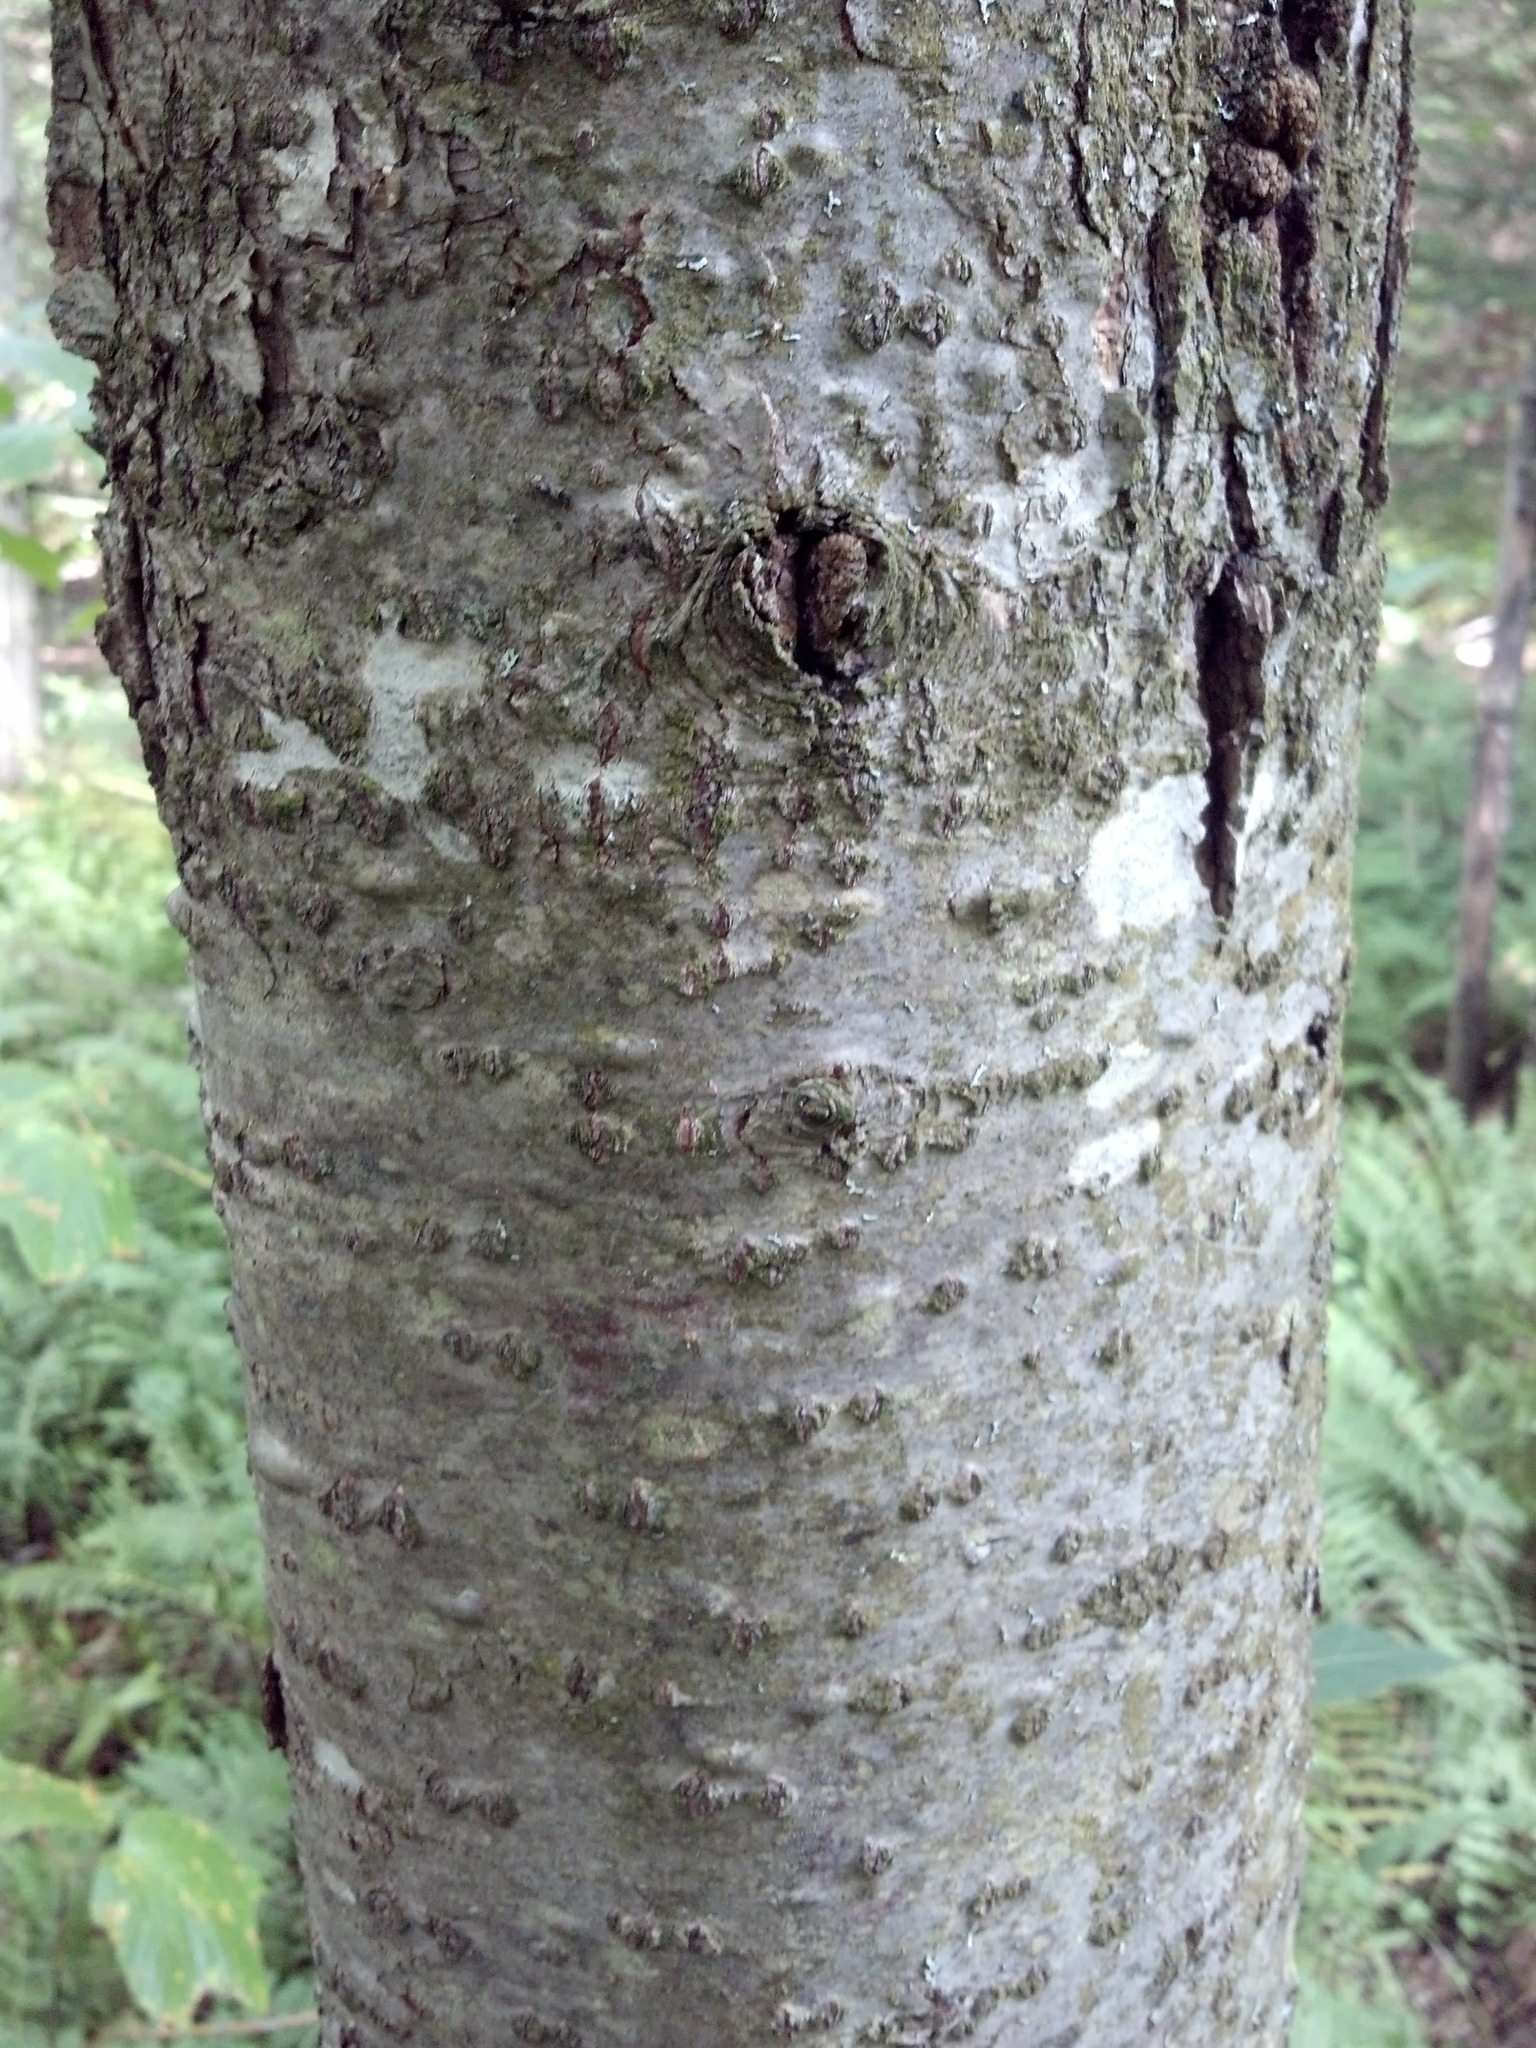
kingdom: Plantae
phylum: Tracheophyta
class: Pinopsida
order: Pinales
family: Pinaceae
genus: Abies
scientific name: Abies balsamea
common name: Balsam fir
